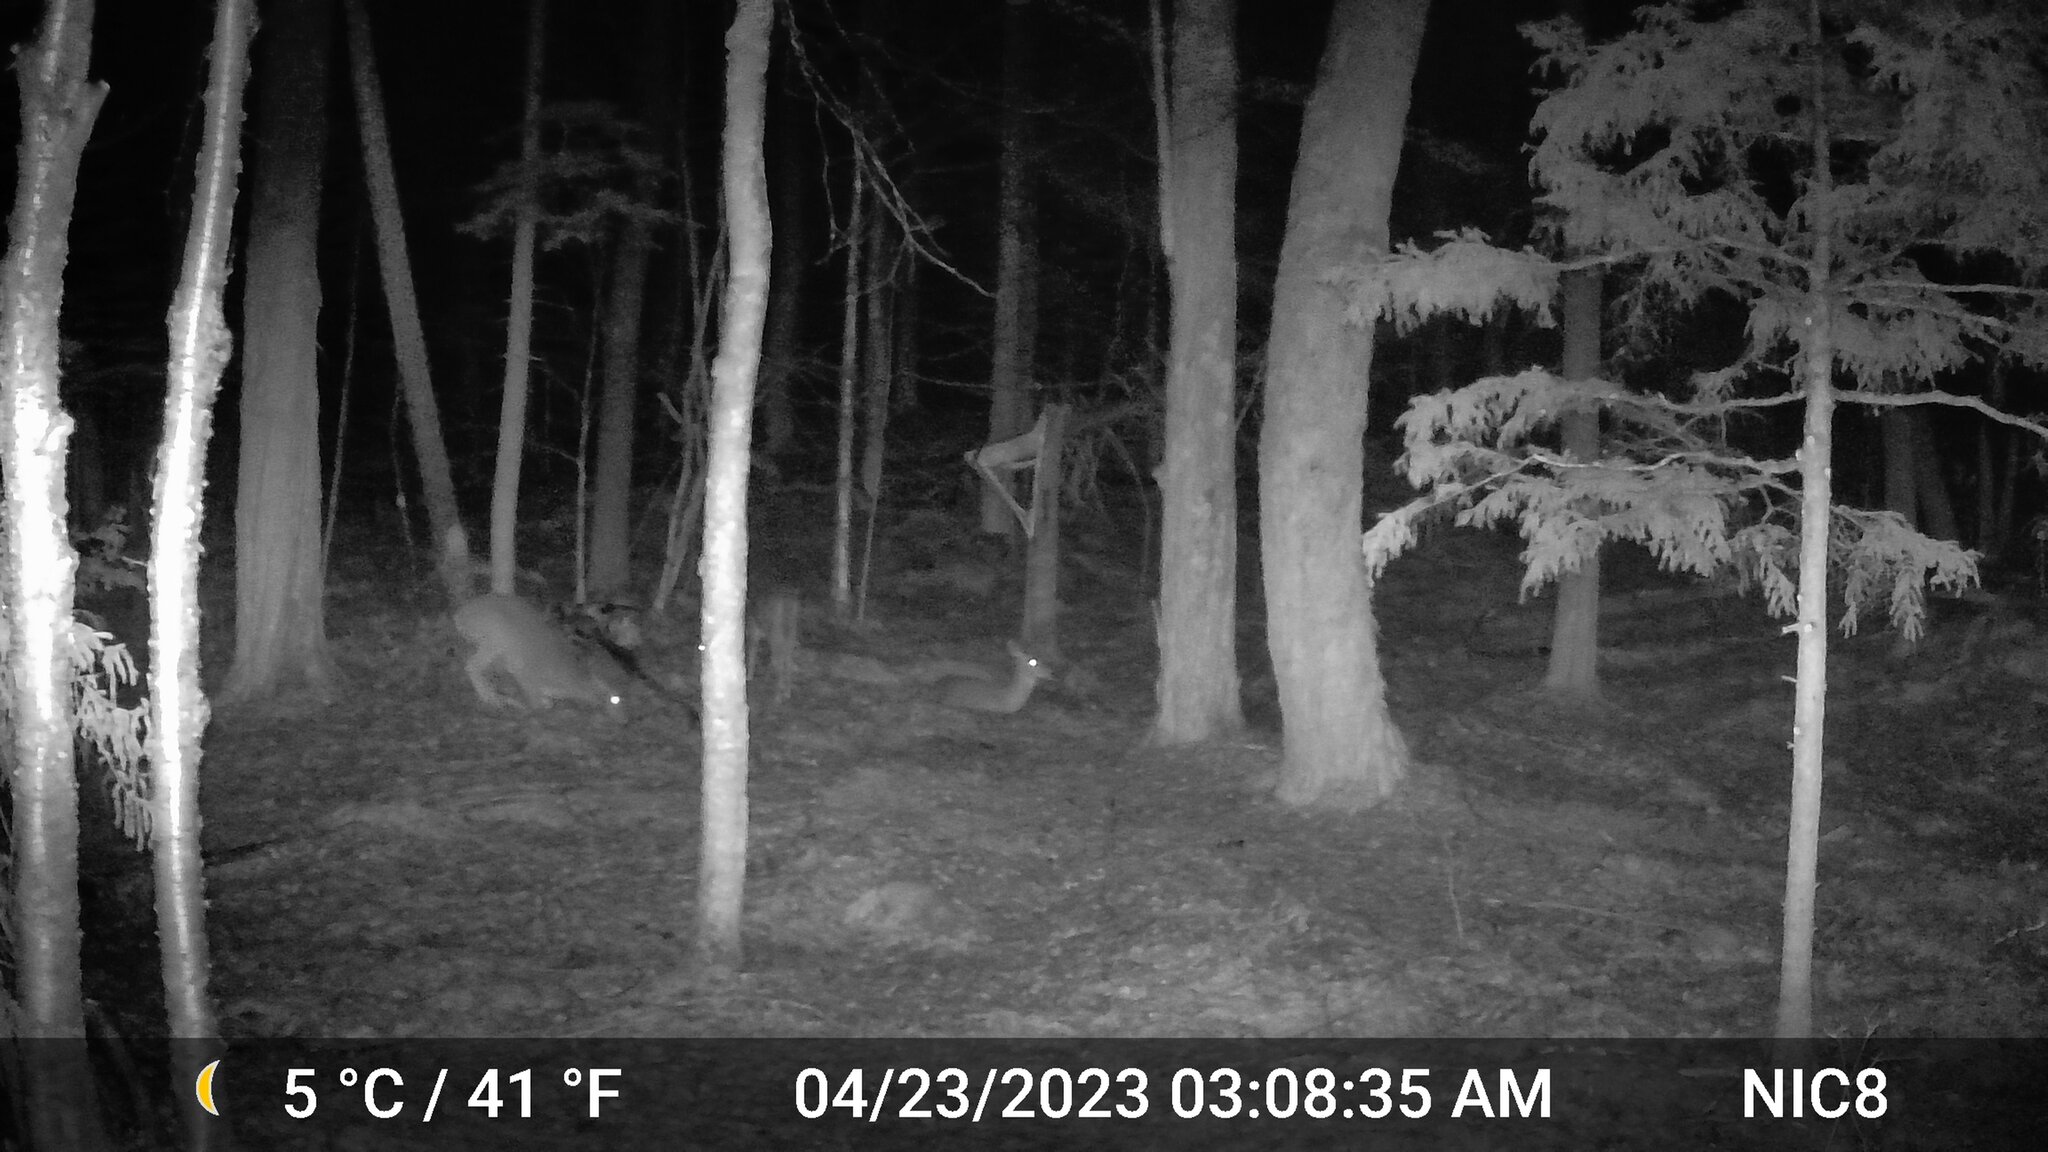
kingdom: Animalia
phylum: Chordata
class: Mammalia
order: Artiodactyla
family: Cervidae
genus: Odocoileus
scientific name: Odocoileus virginianus
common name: White-tailed deer
